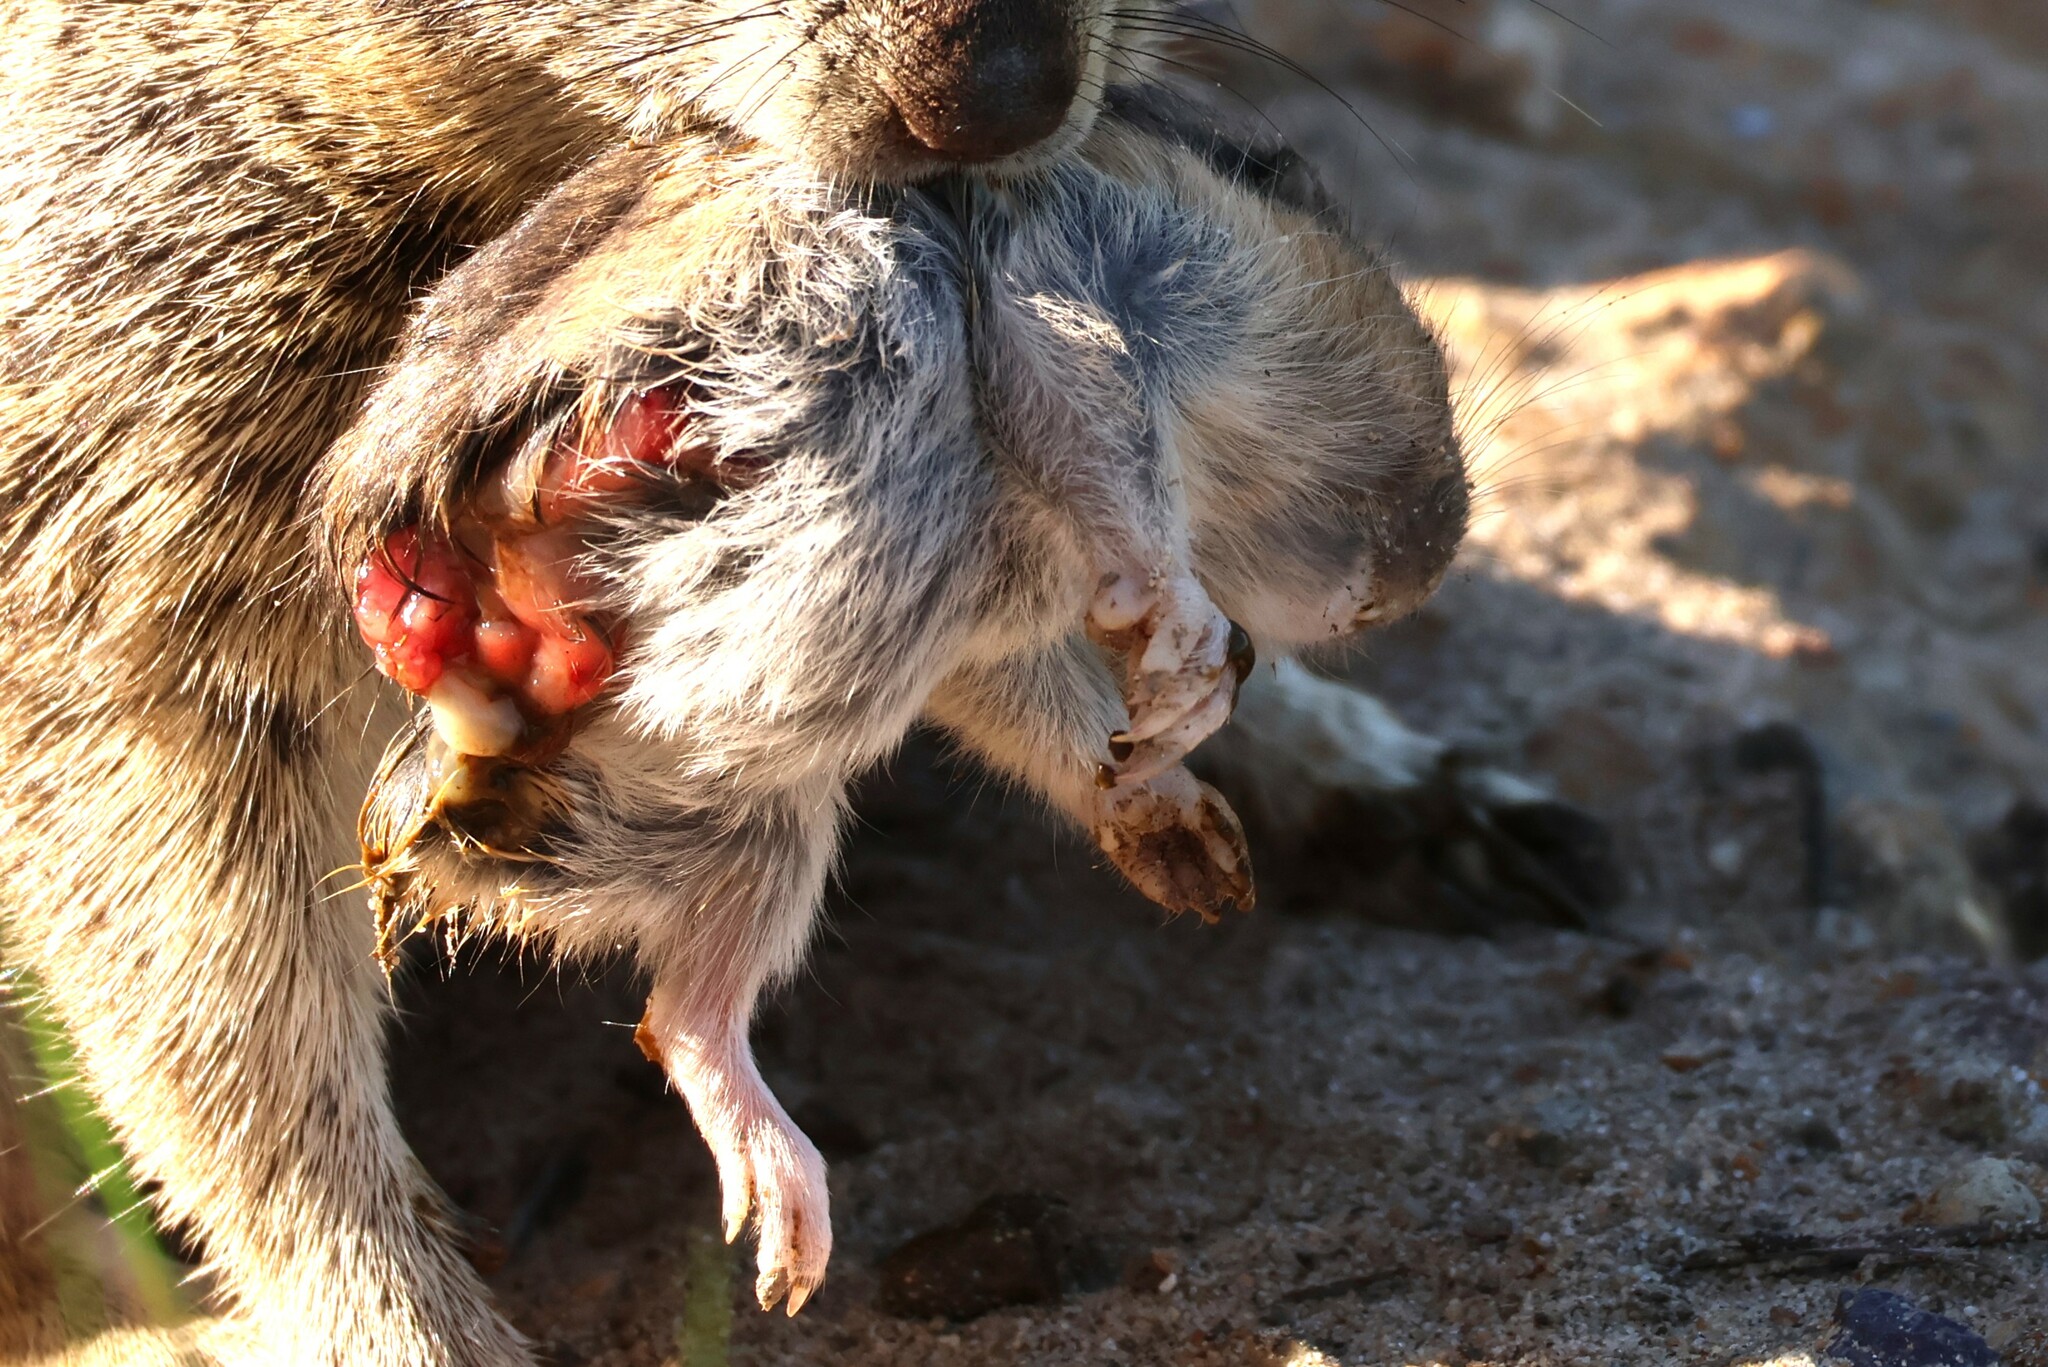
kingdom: Animalia
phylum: Chordata
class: Mammalia
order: Rodentia
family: Geomyidae
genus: Thomomys
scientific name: Thomomys bottae
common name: Botta's pocket gopher
